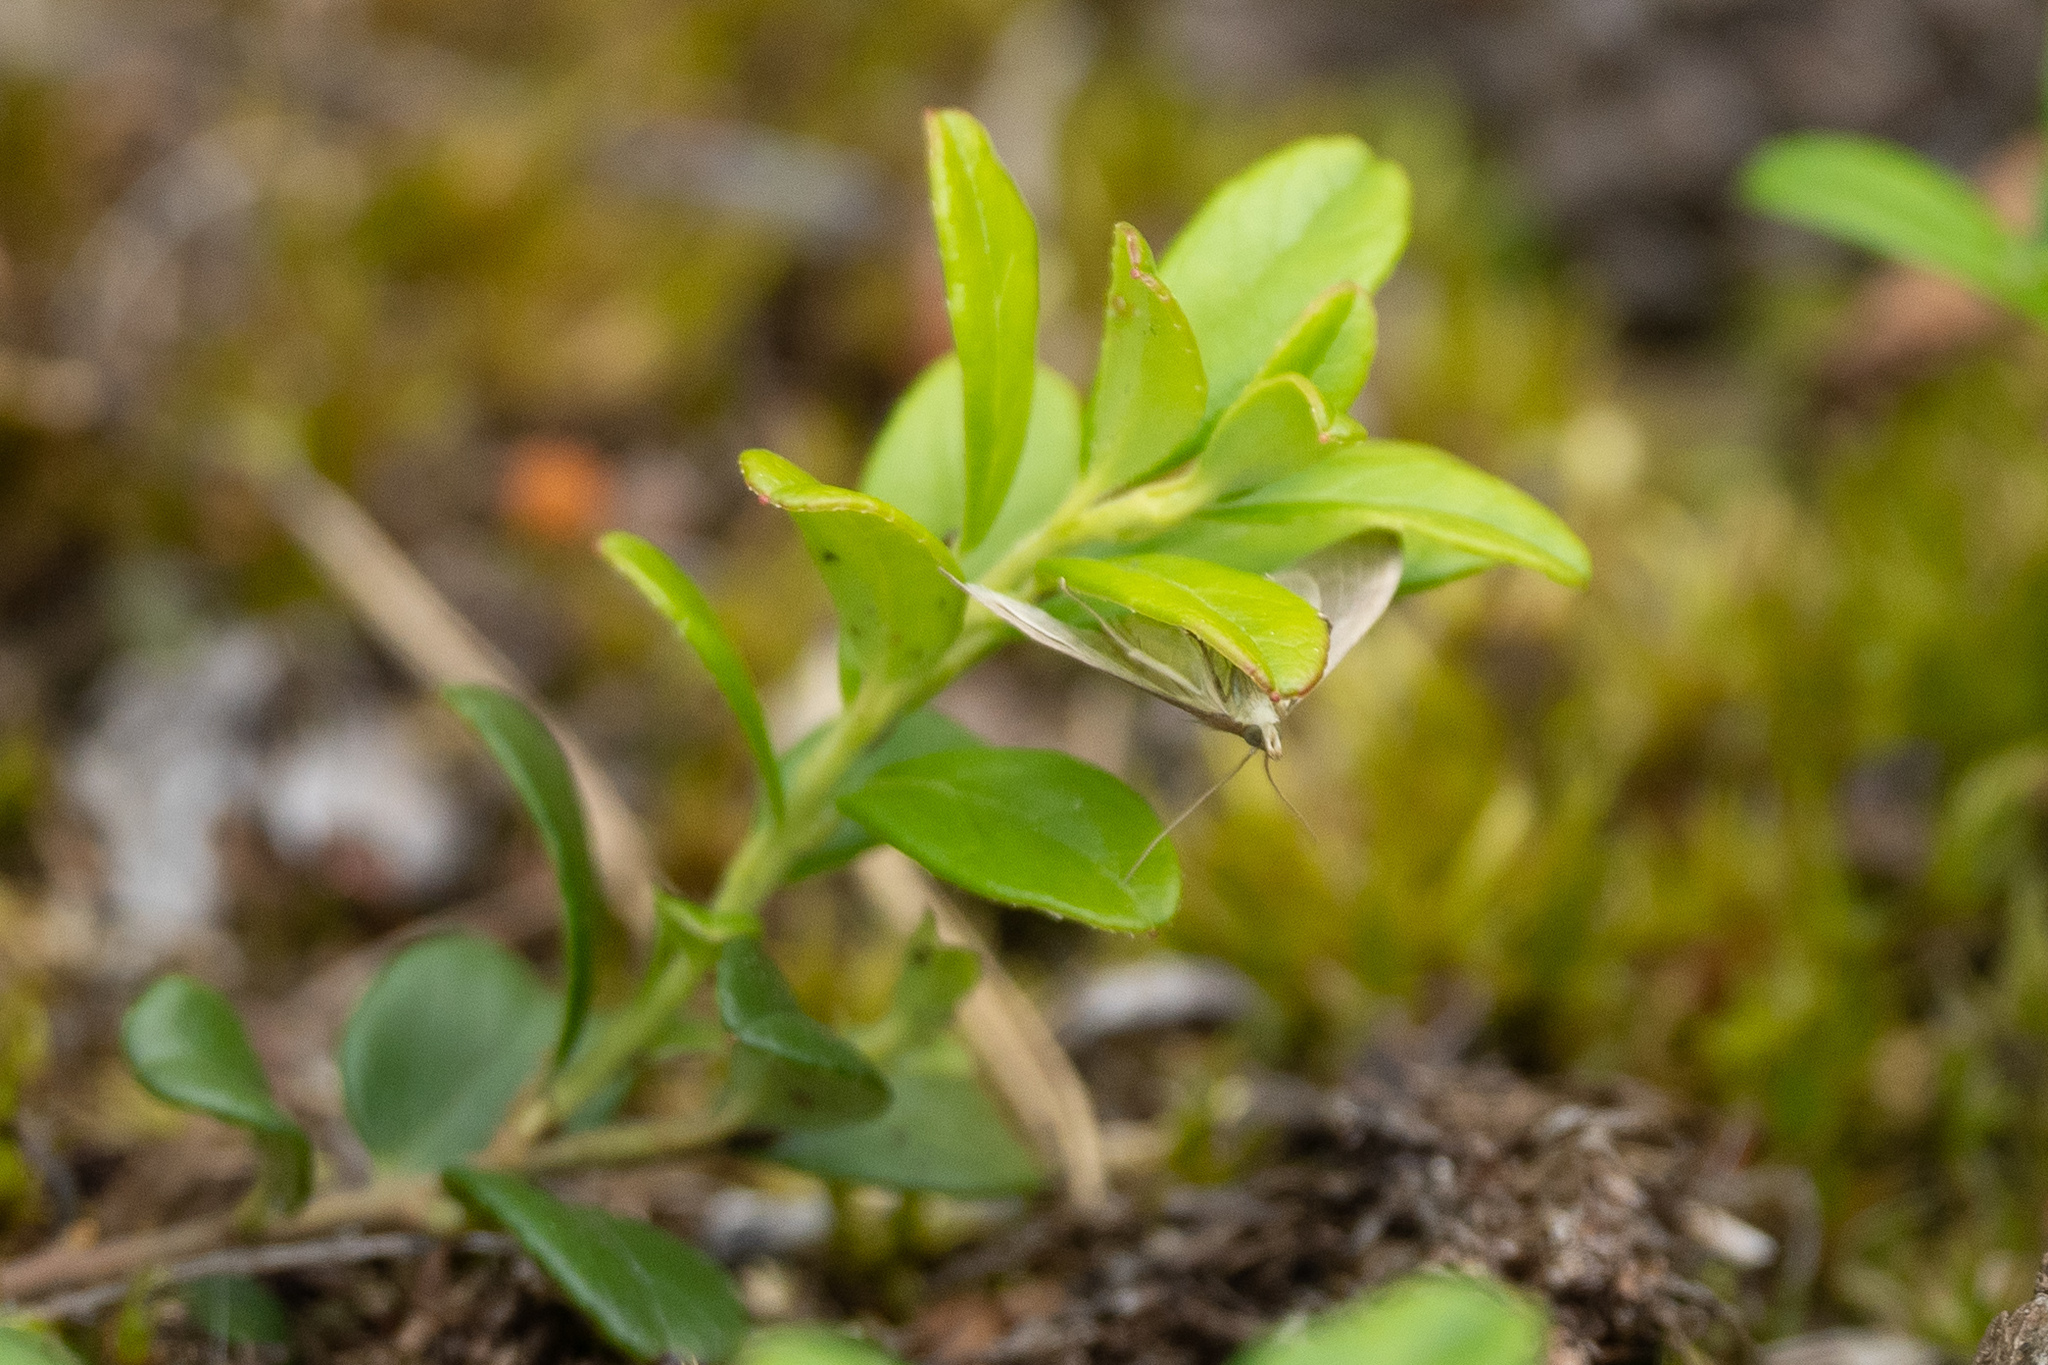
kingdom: Animalia
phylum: Arthropoda
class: Insecta
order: Lepidoptera
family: Crambidae
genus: Anania
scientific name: Anania fuscalis
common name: Cinerous pearl
